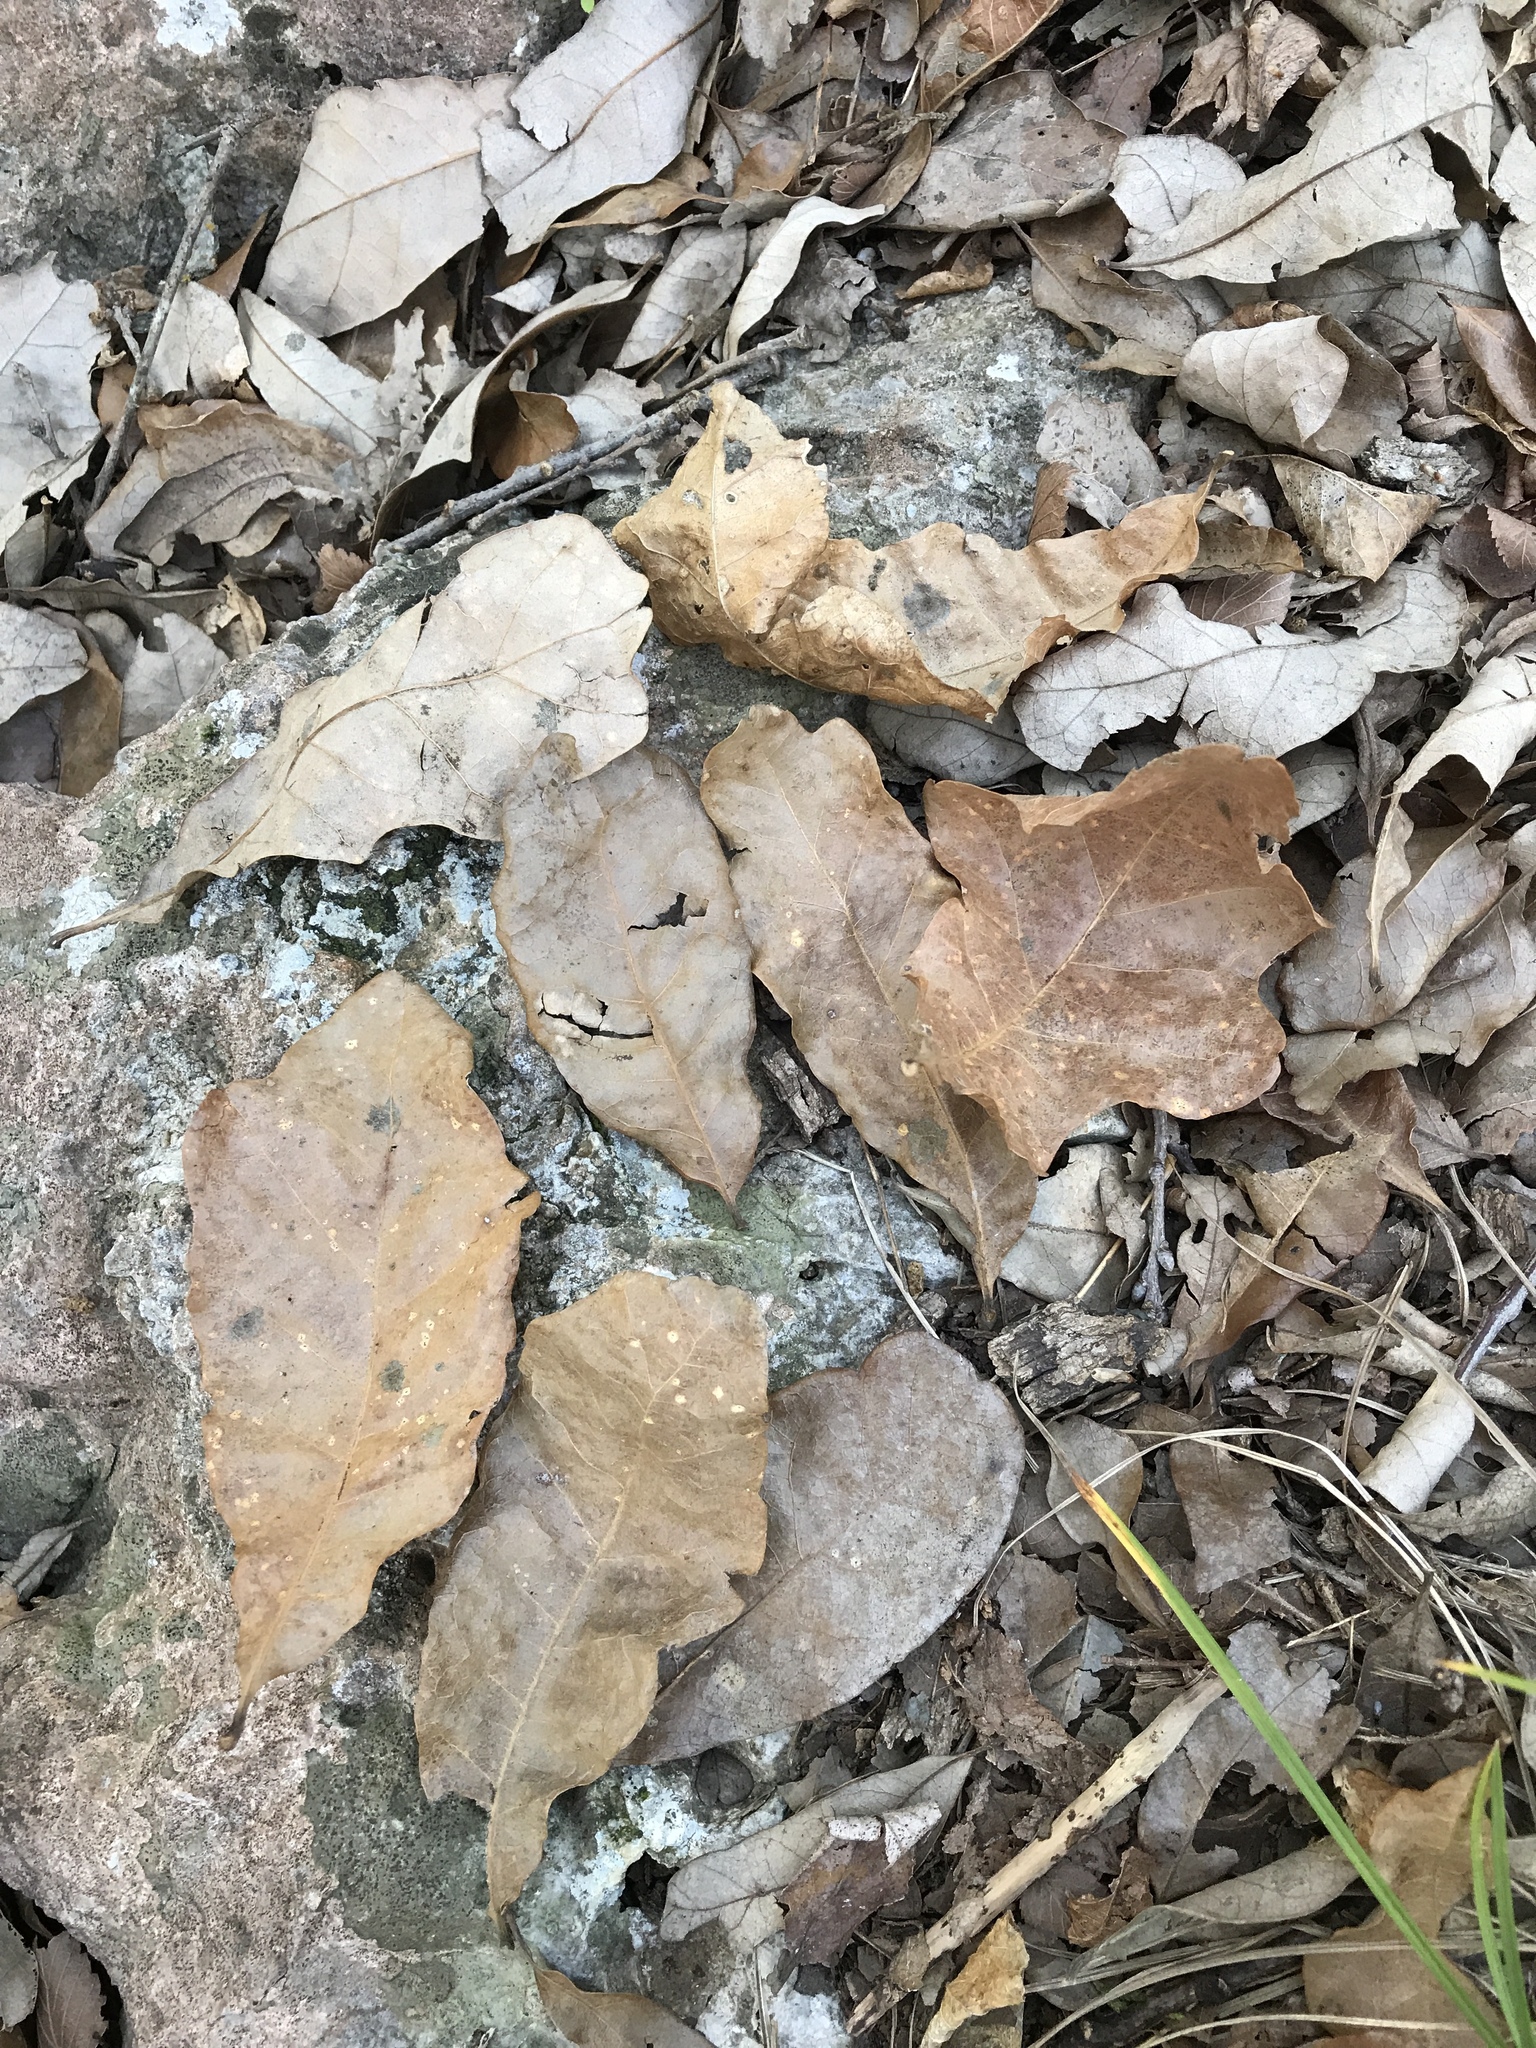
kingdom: Plantae
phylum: Tracheophyta
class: Magnoliopsida
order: Fagales
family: Fagaceae
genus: Quercus
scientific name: Quercus sinuata
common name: Durand oak
